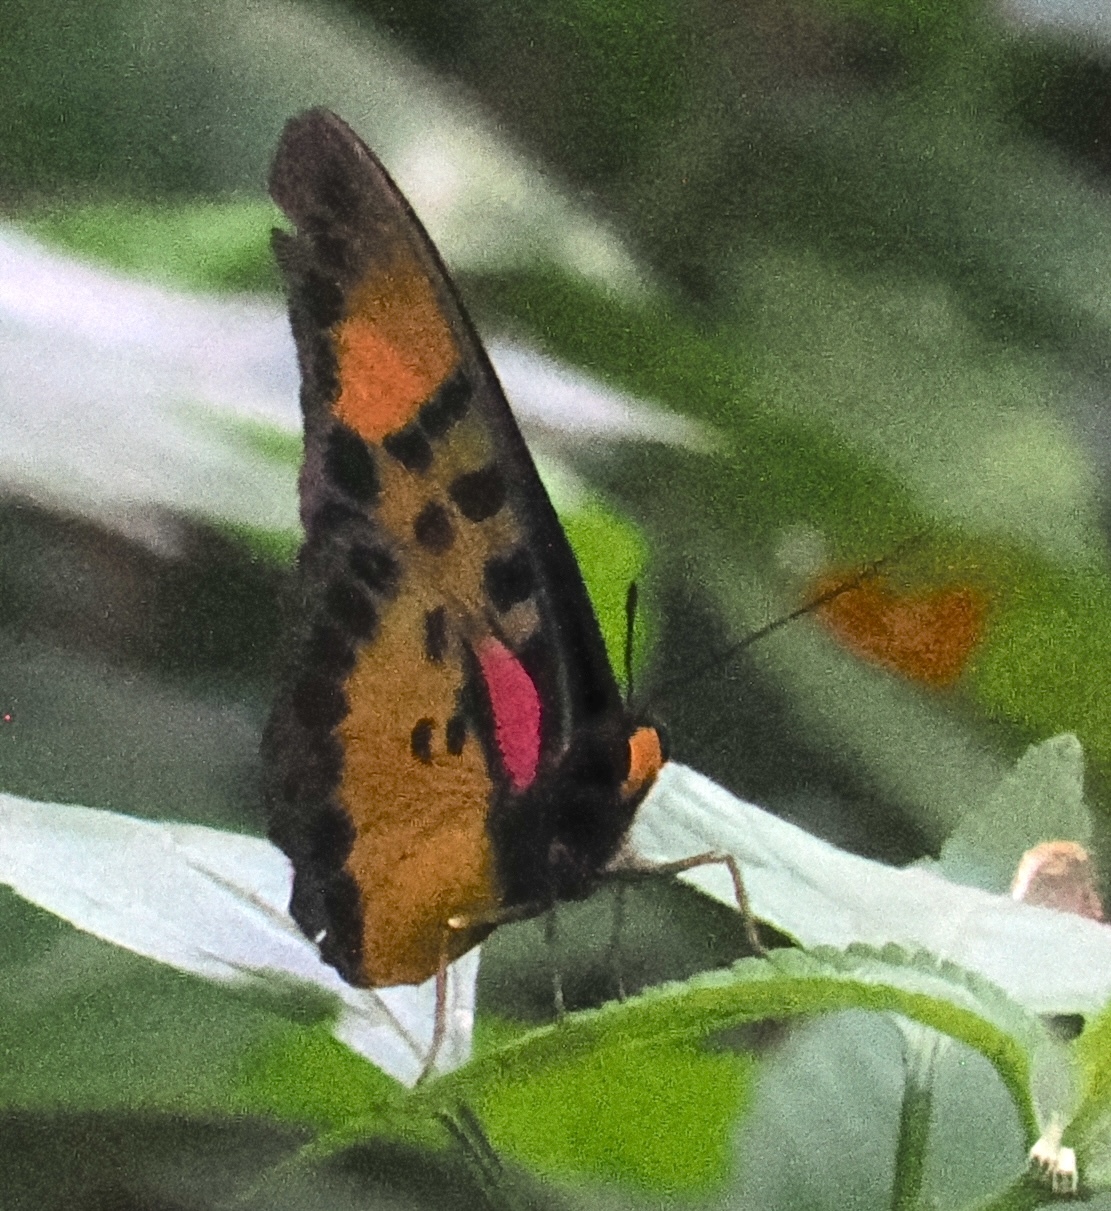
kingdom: Animalia
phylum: Arthropoda
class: Insecta
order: Lepidoptera
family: Nymphalidae
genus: Euphaedra
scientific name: Euphaedra cyparissa
